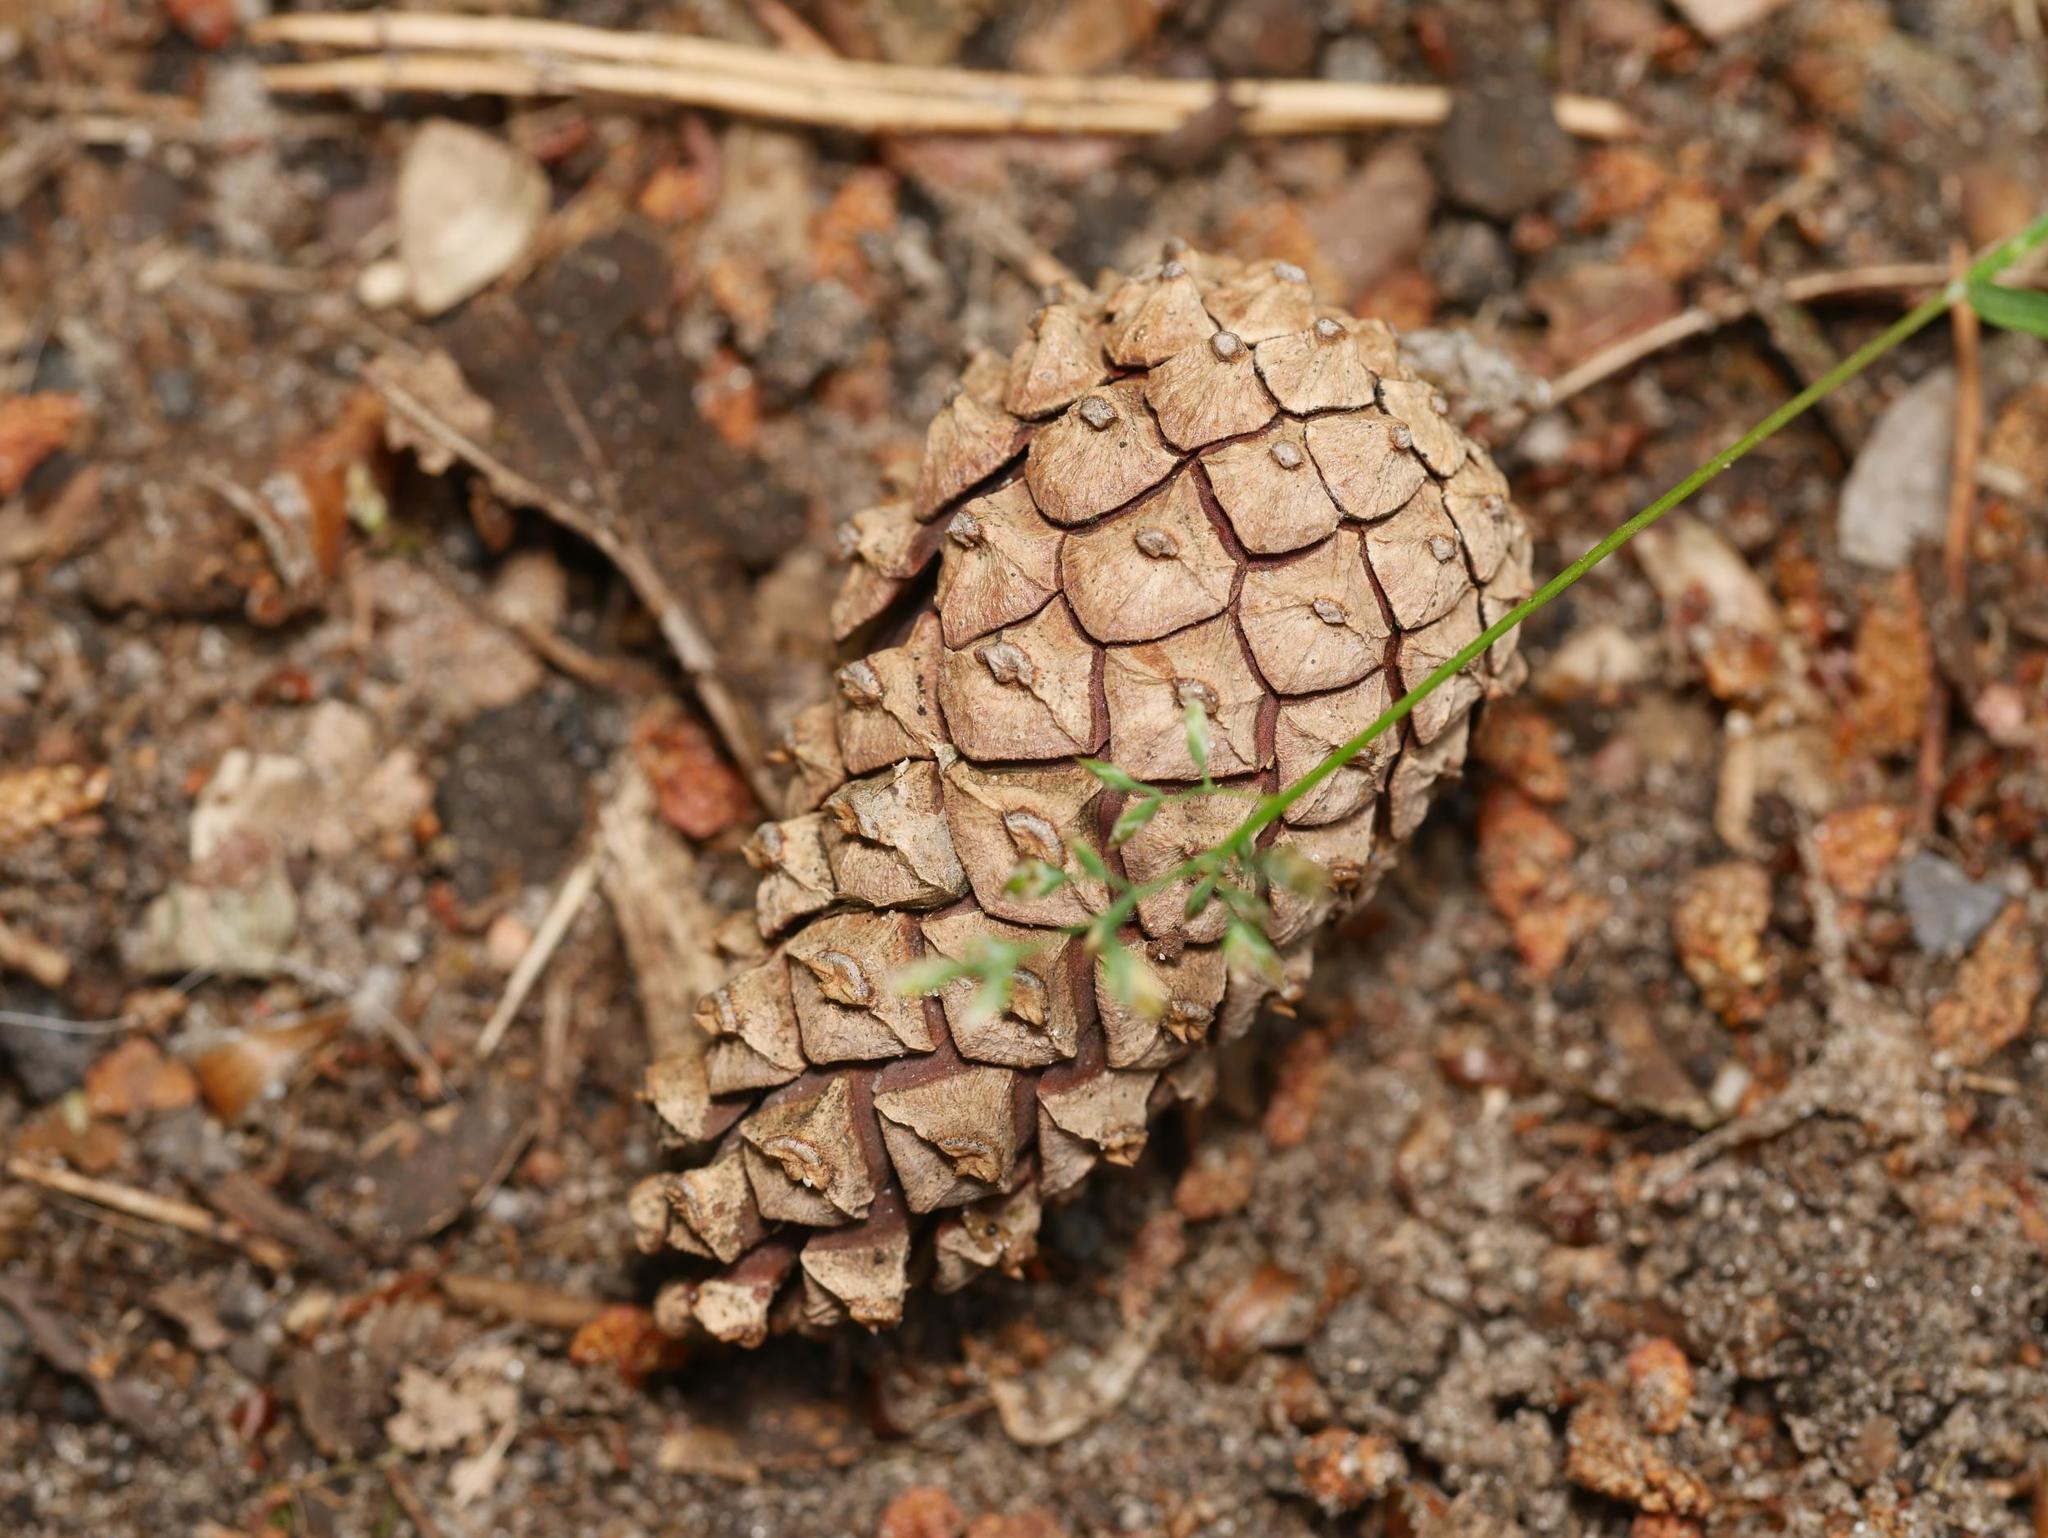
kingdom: Plantae
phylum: Tracheophyta
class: Pinopsida
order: Pinales
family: Pinaceae
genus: Pinus
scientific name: Pinus sylvestris
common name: Scots pine
